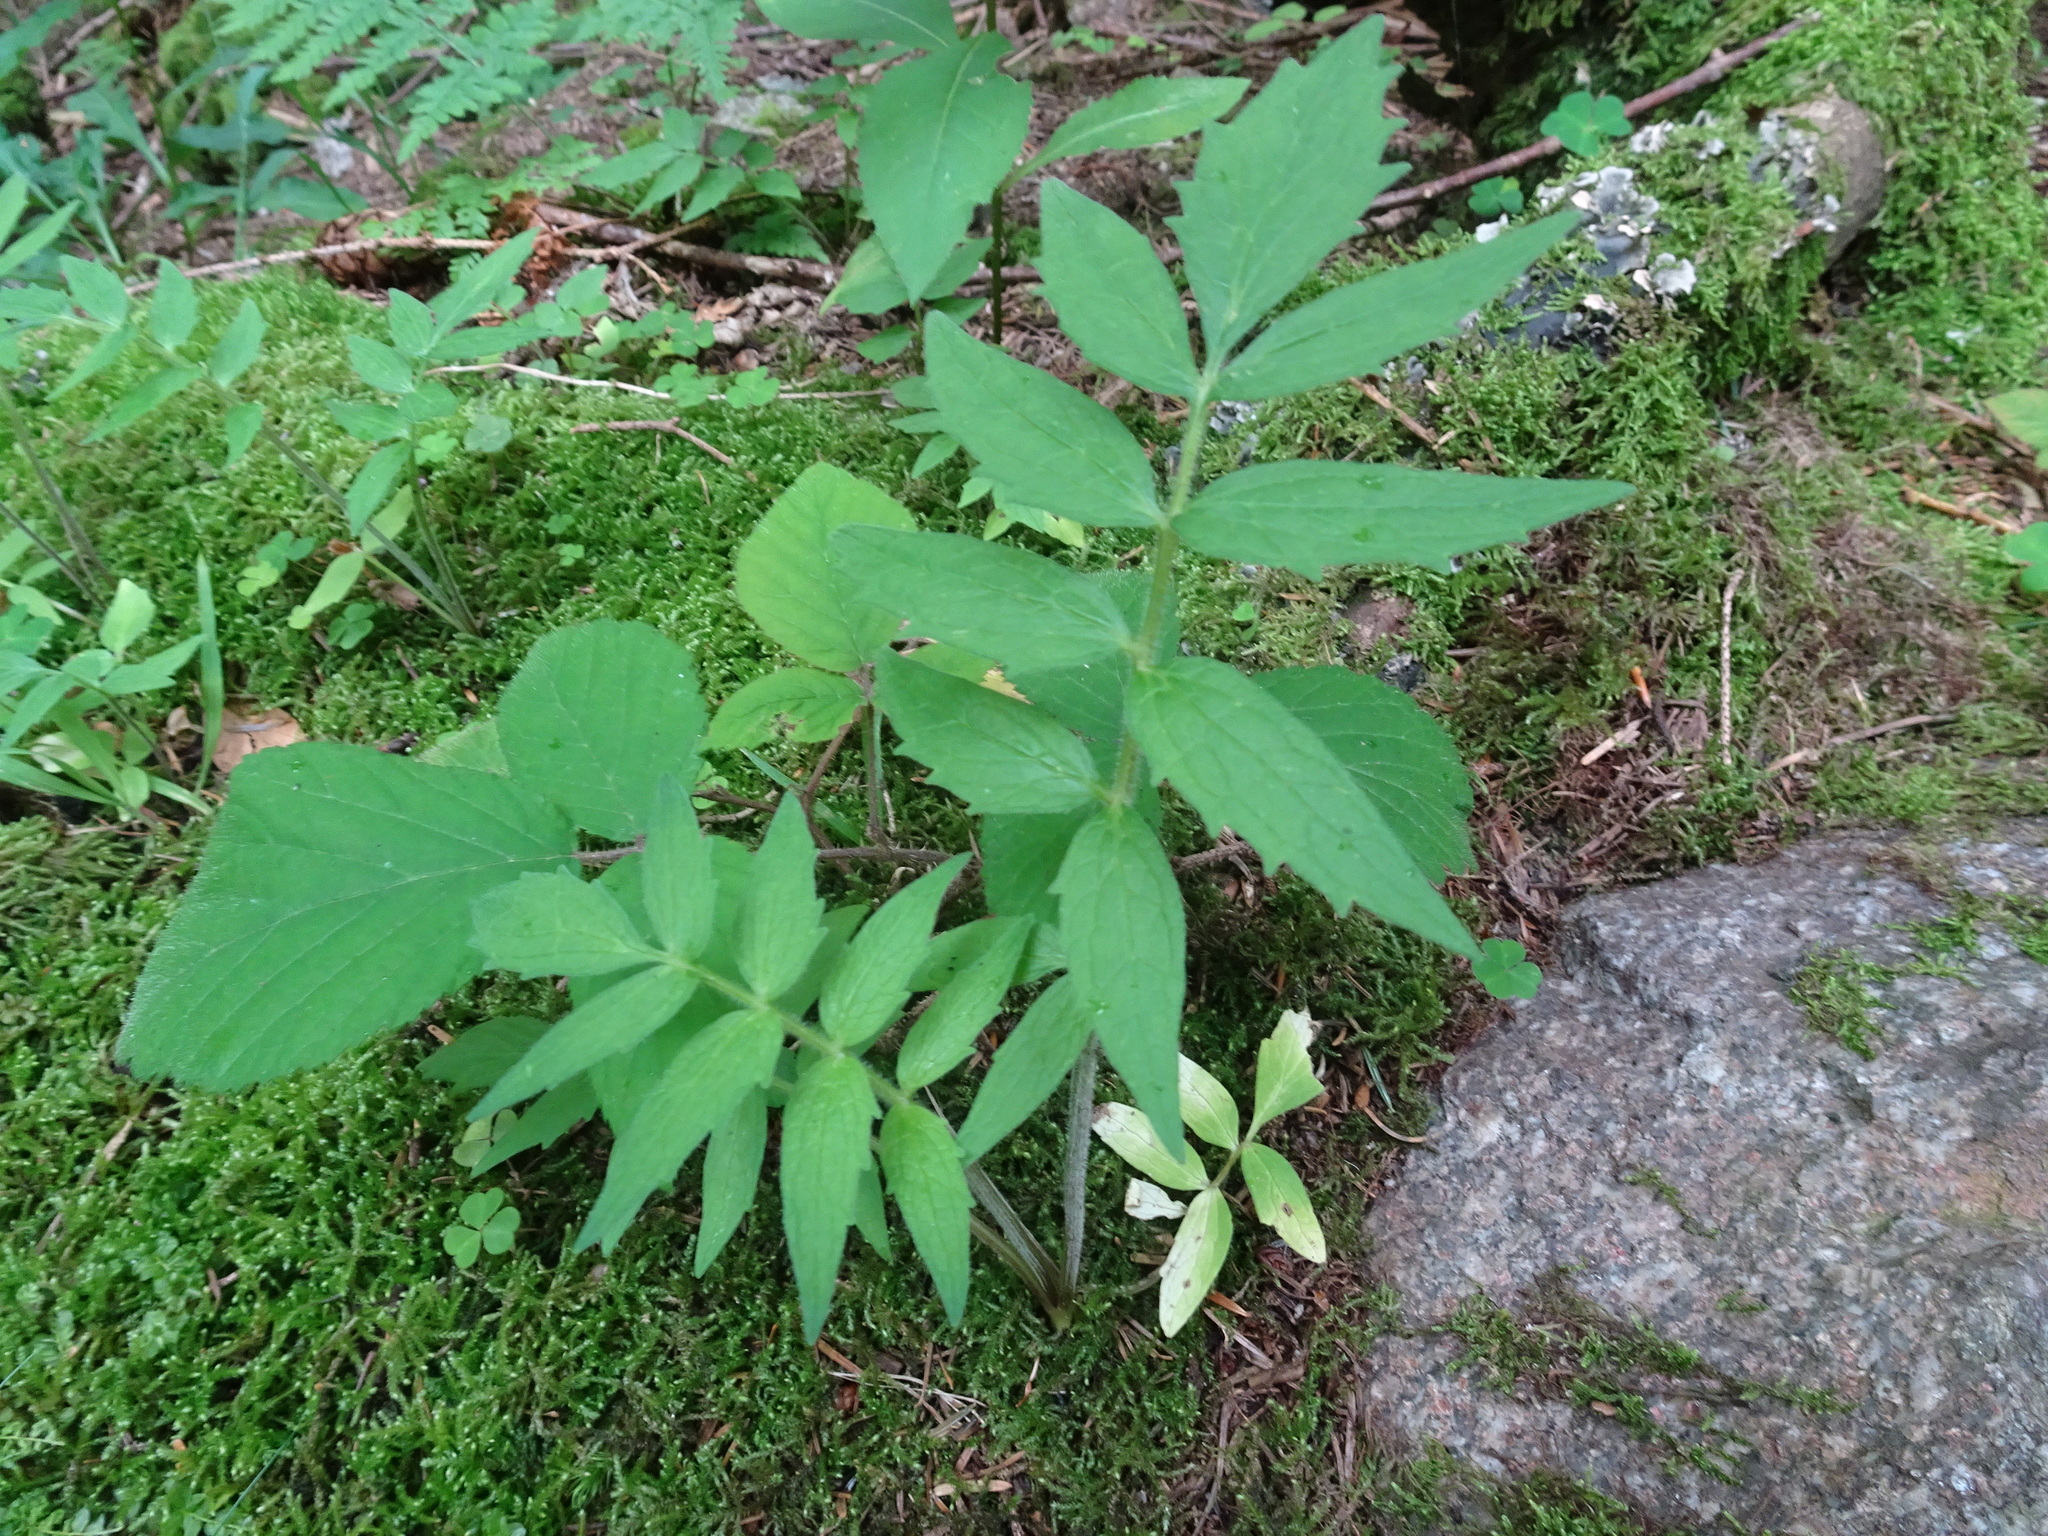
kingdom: Plantae
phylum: Tracheophyta
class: Magnoliopsida
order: Dipsacales
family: Caprifoliaceae
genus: Valeriana
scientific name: Valeriana officinalis
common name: Common valerian
